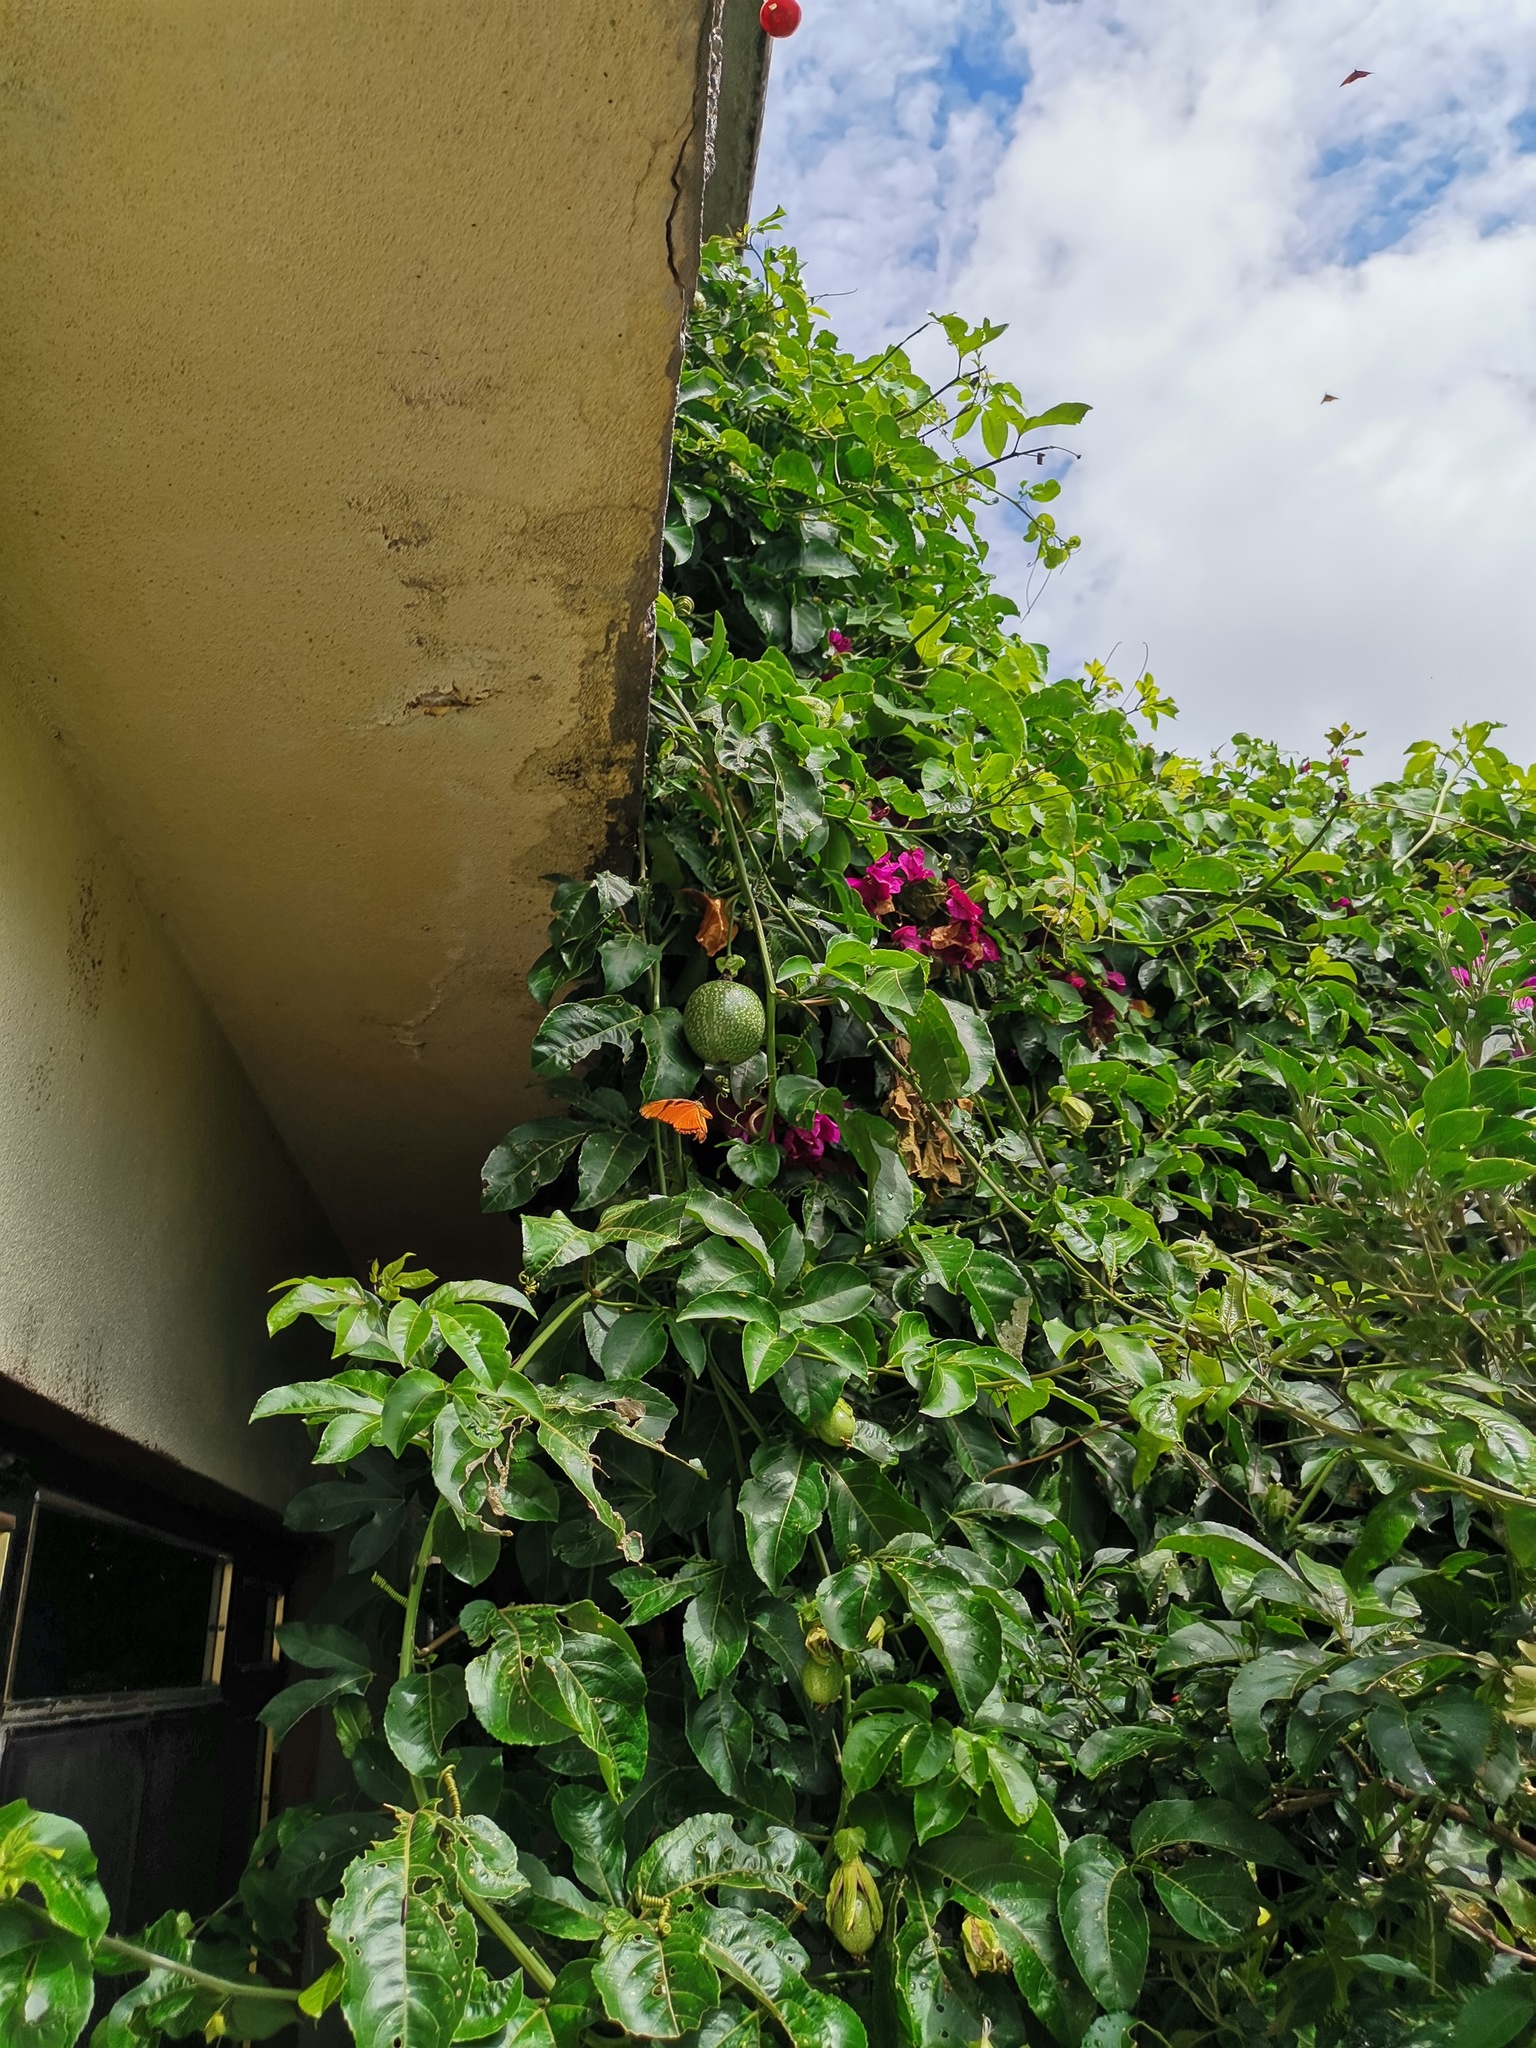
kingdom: Animalia
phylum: Arthropoda
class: Insecta
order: Lepidoptera
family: Nymphalidae
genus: Dione
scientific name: Dione juno
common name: Juno silverspot
